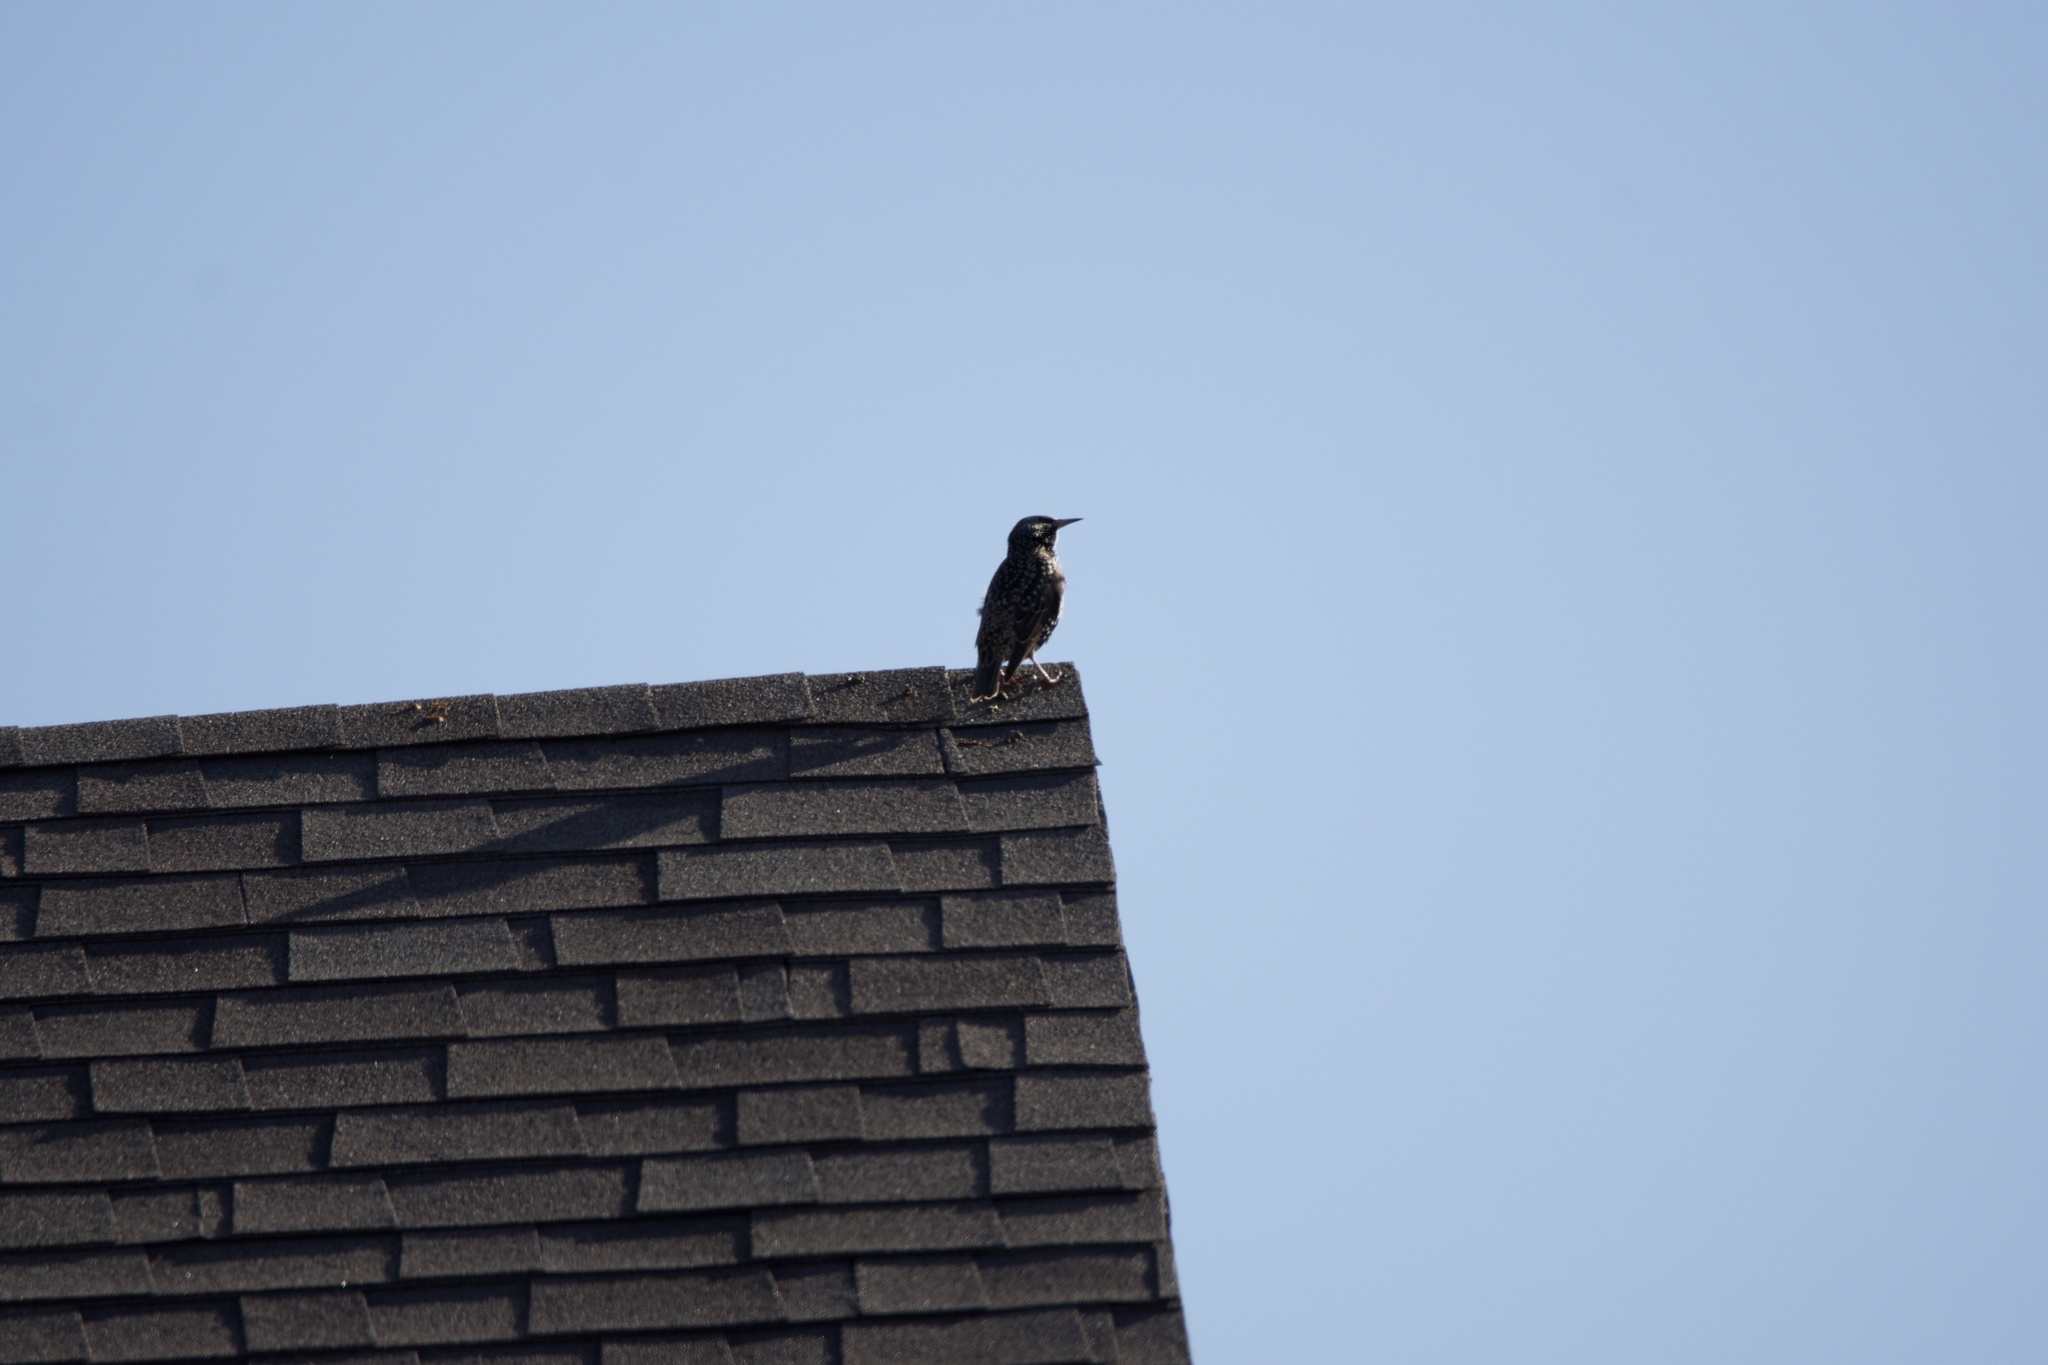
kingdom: Animalia
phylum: Chordata
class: Aves
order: Passeriformes
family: Sturnidae
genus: Sturnus
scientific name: Sturnus vulgaris
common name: Common starling
